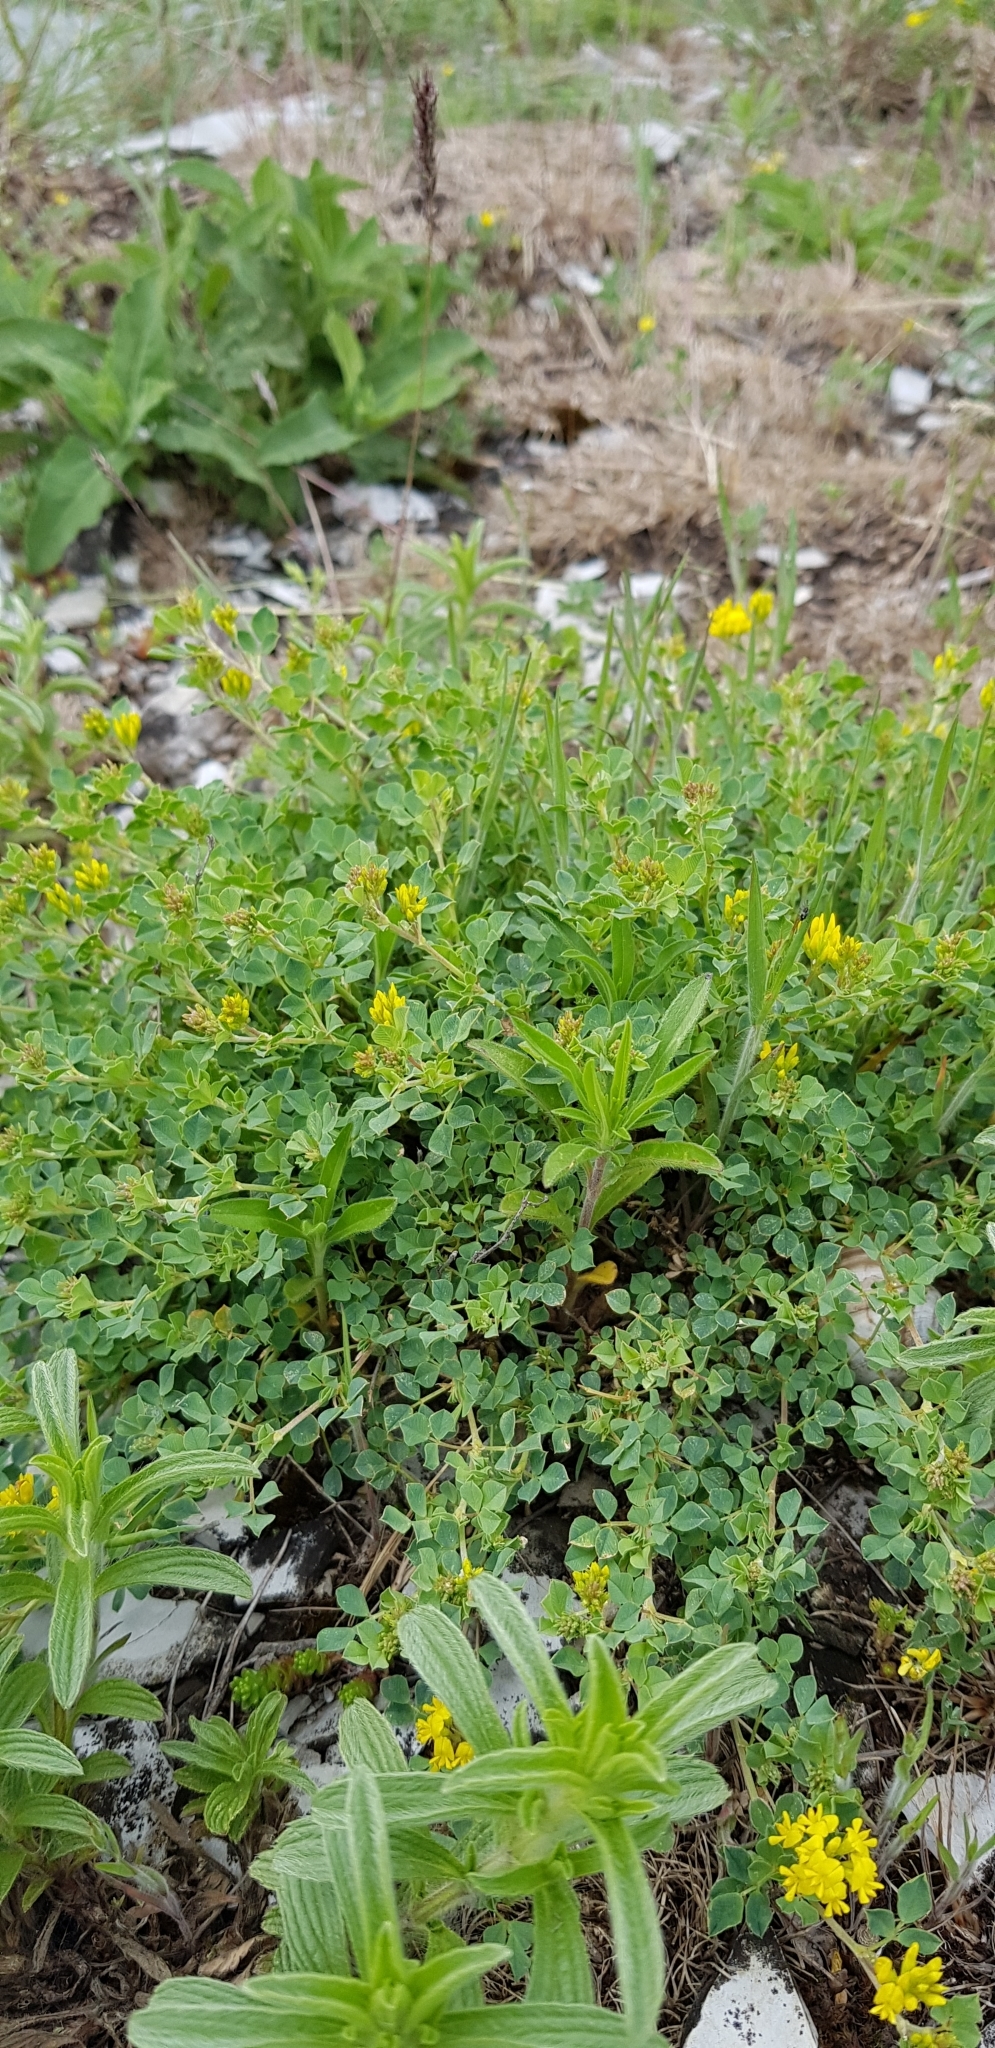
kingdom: Plantae
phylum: Tracheophyta
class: Magnoliopsida
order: Fabales
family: Fabaceae
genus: Medicago
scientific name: Medicago cretacea
